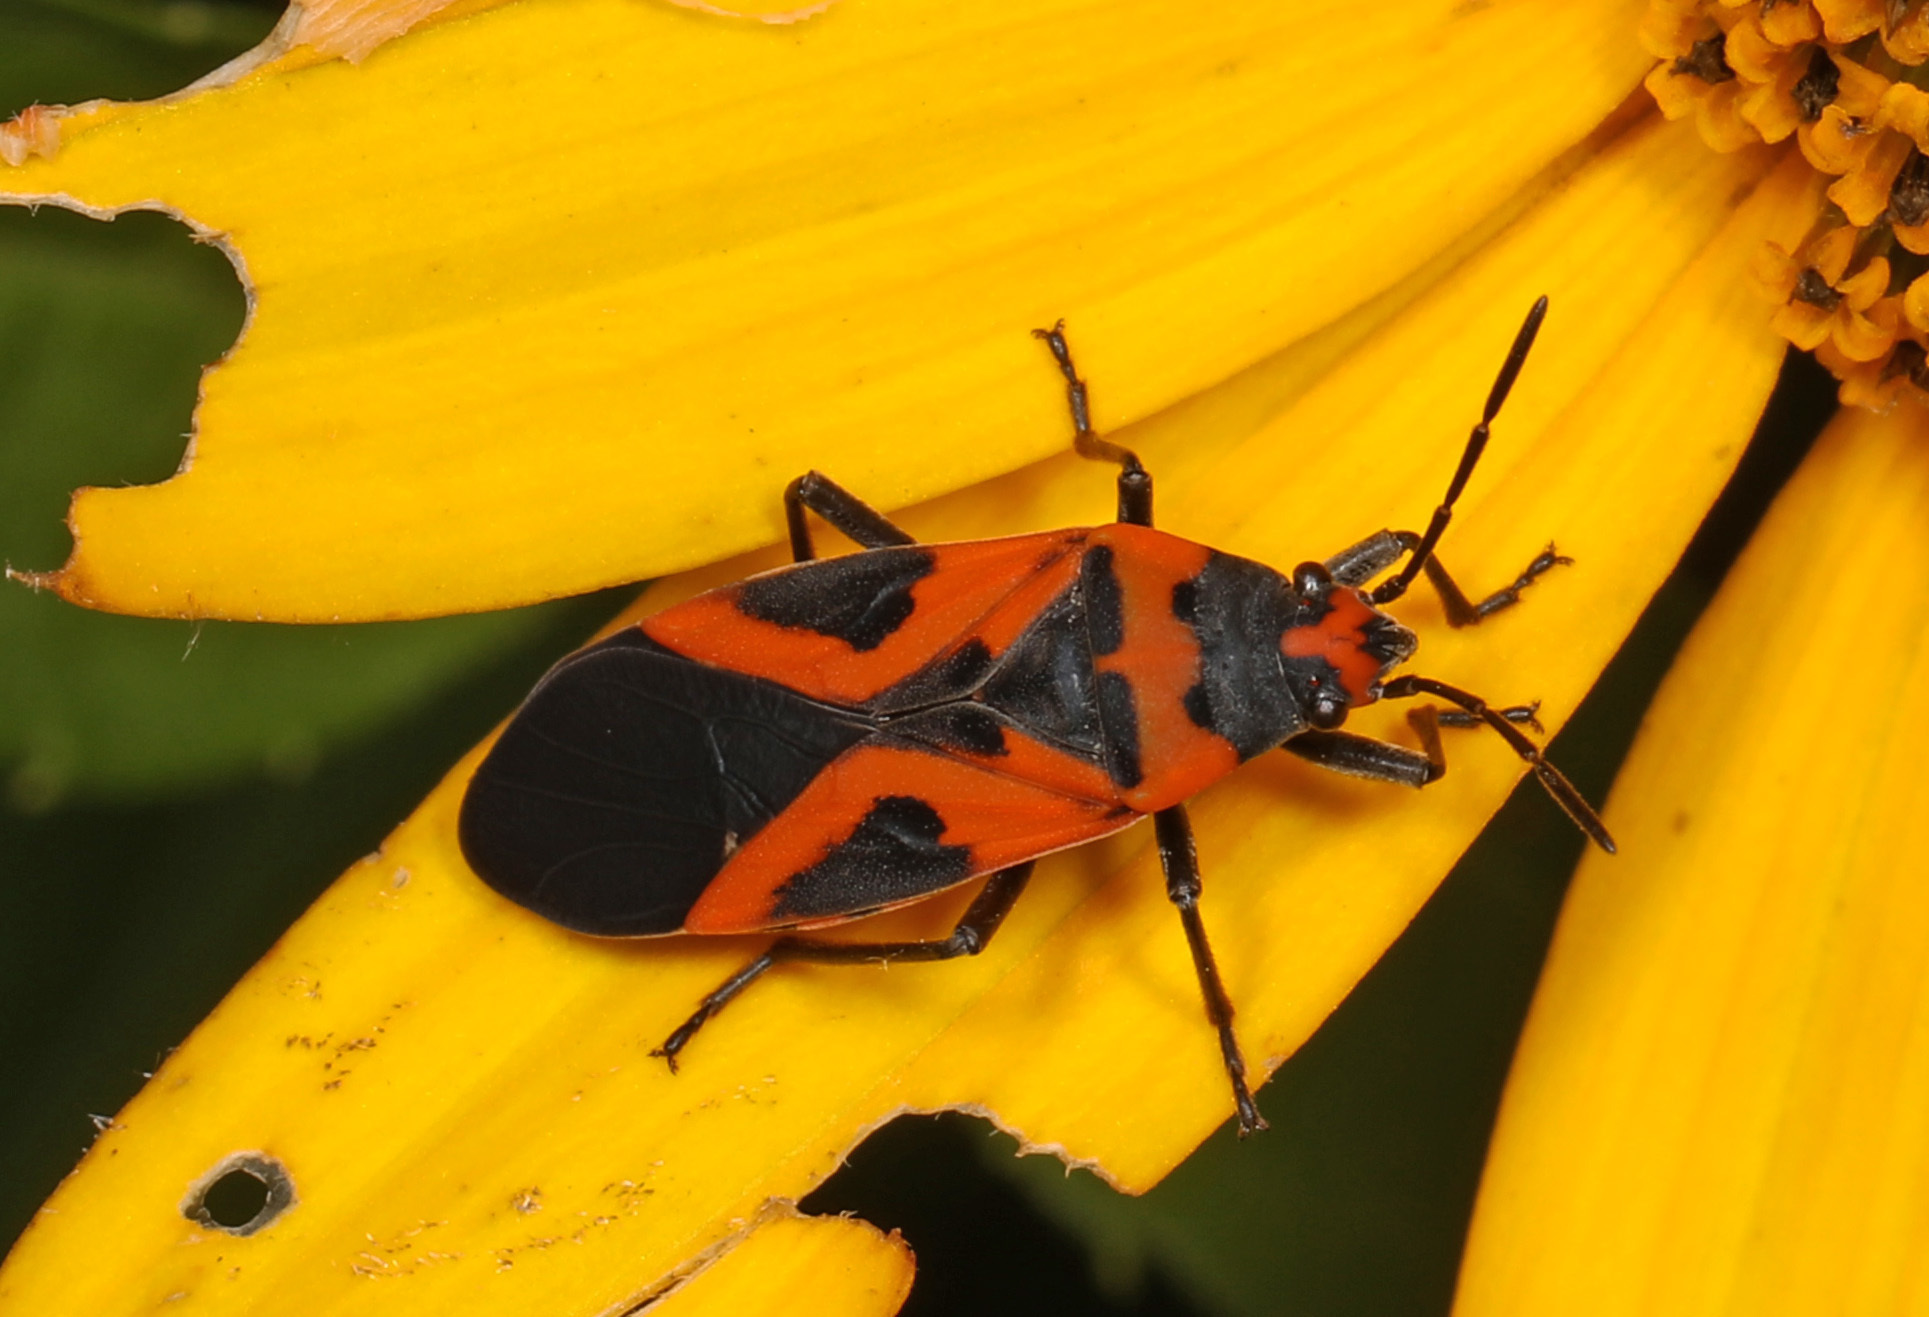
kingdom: Animalia
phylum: Arthropoda
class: Insecta
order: Hemiptera
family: Lygaeidae
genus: Lygaeus
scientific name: Lygaeus turcicus
